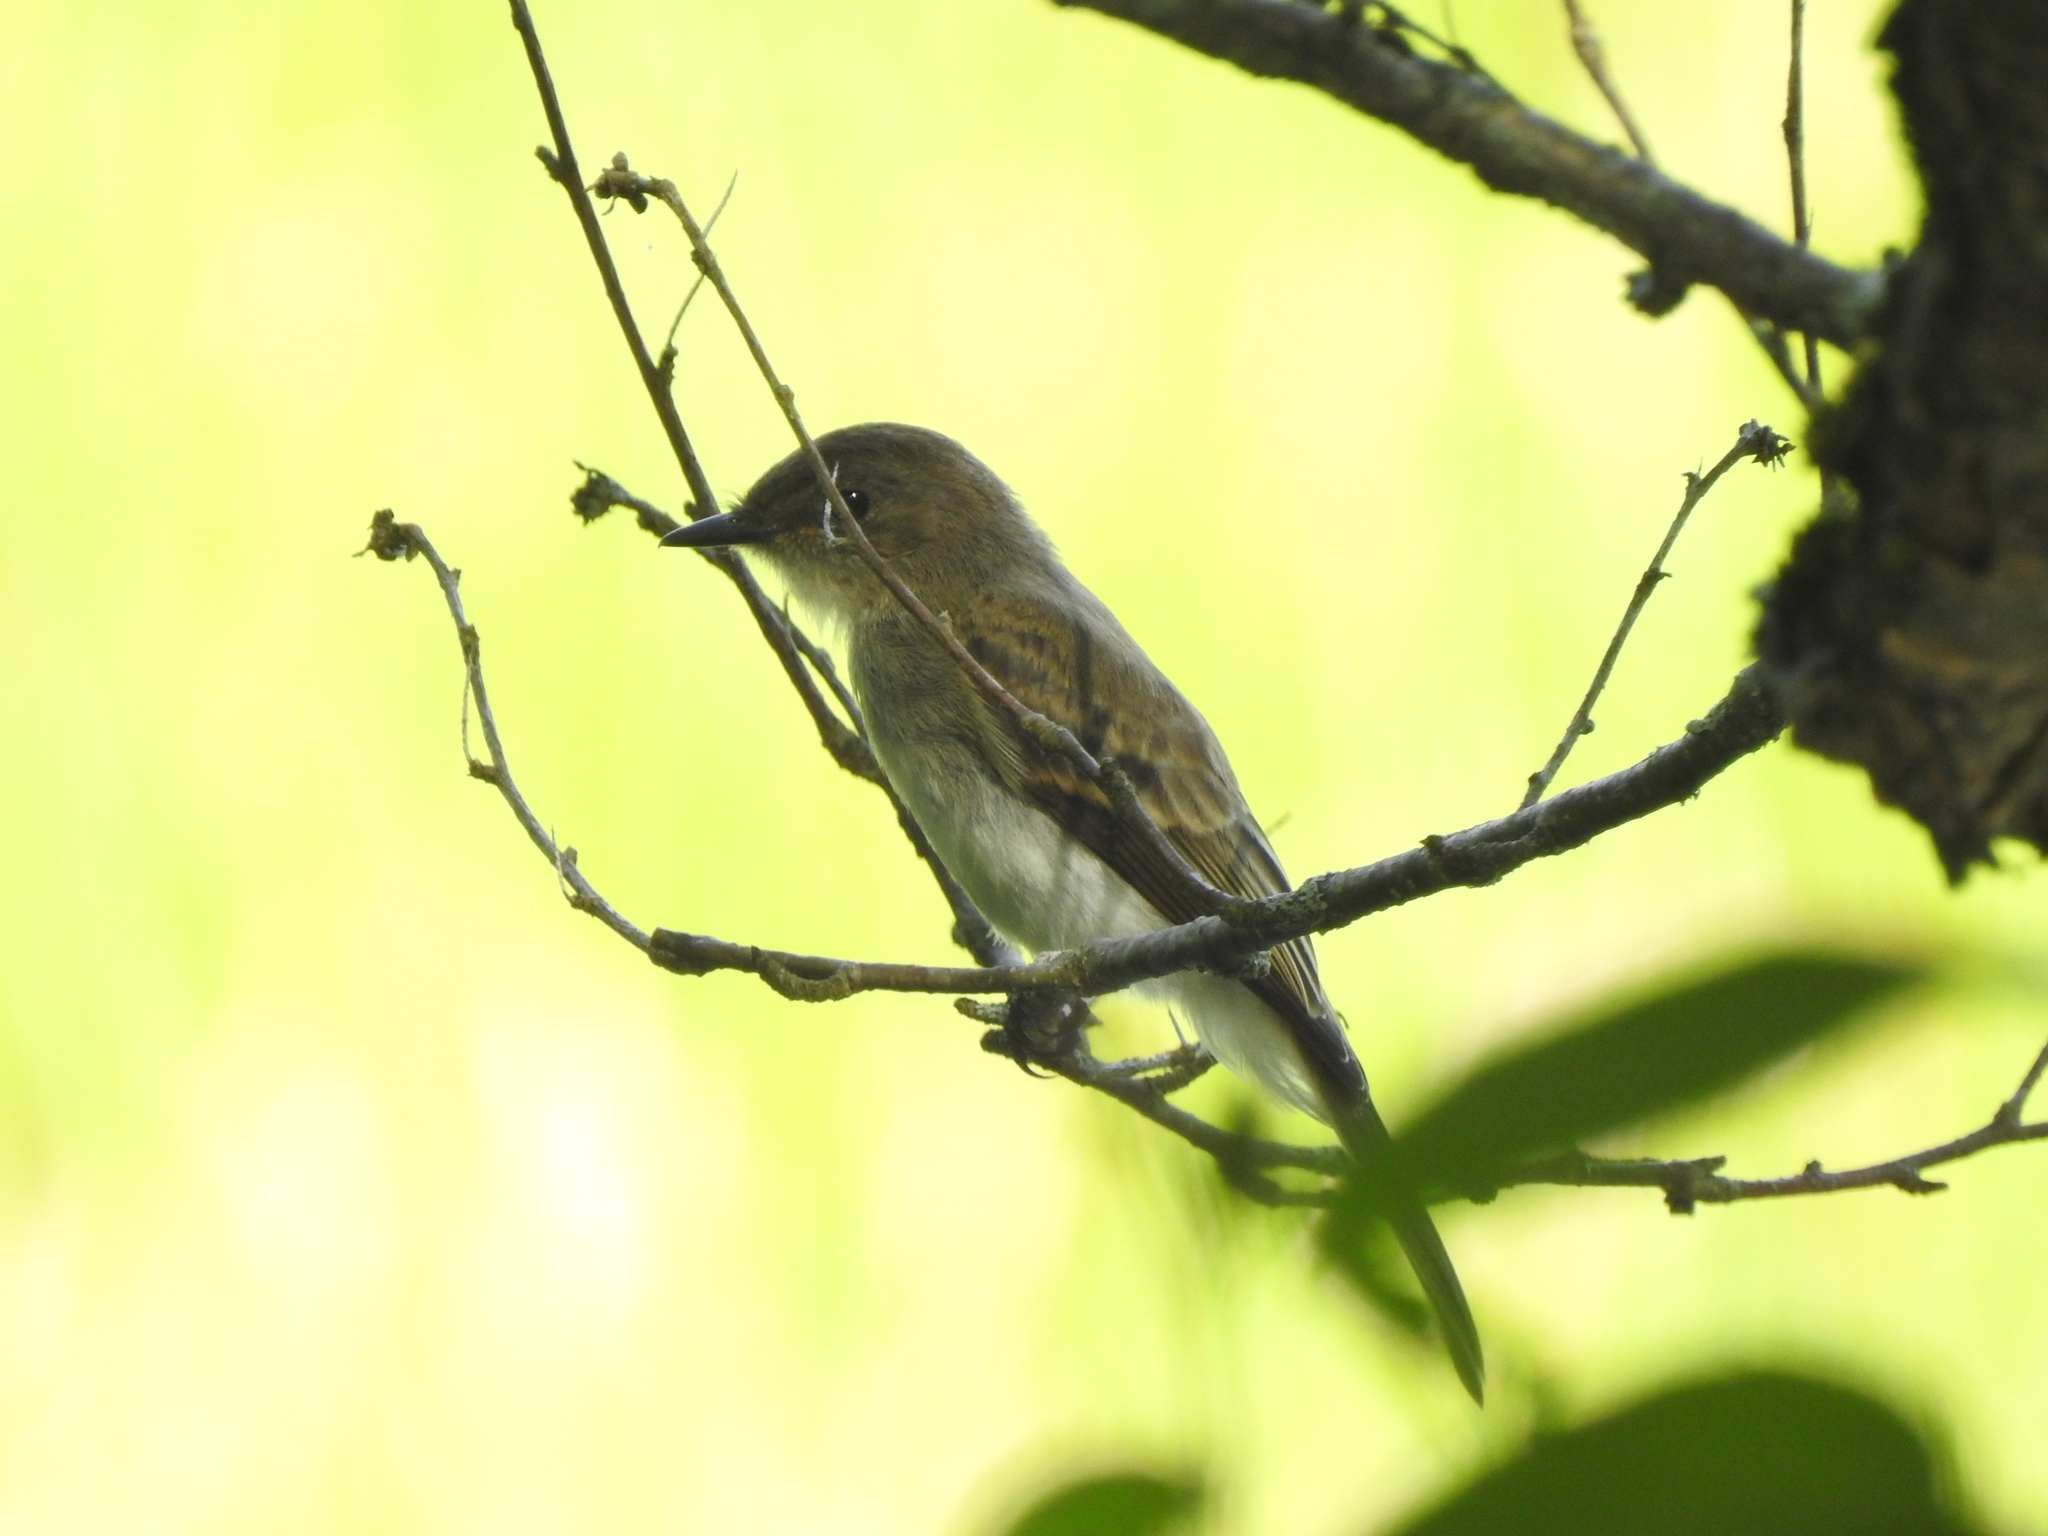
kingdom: Animalia
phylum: Chordata
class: Aves
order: Passeriformes
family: Tyrannidae
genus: Sayornis
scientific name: Sayornis phoebe
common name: Eastern phoebe
